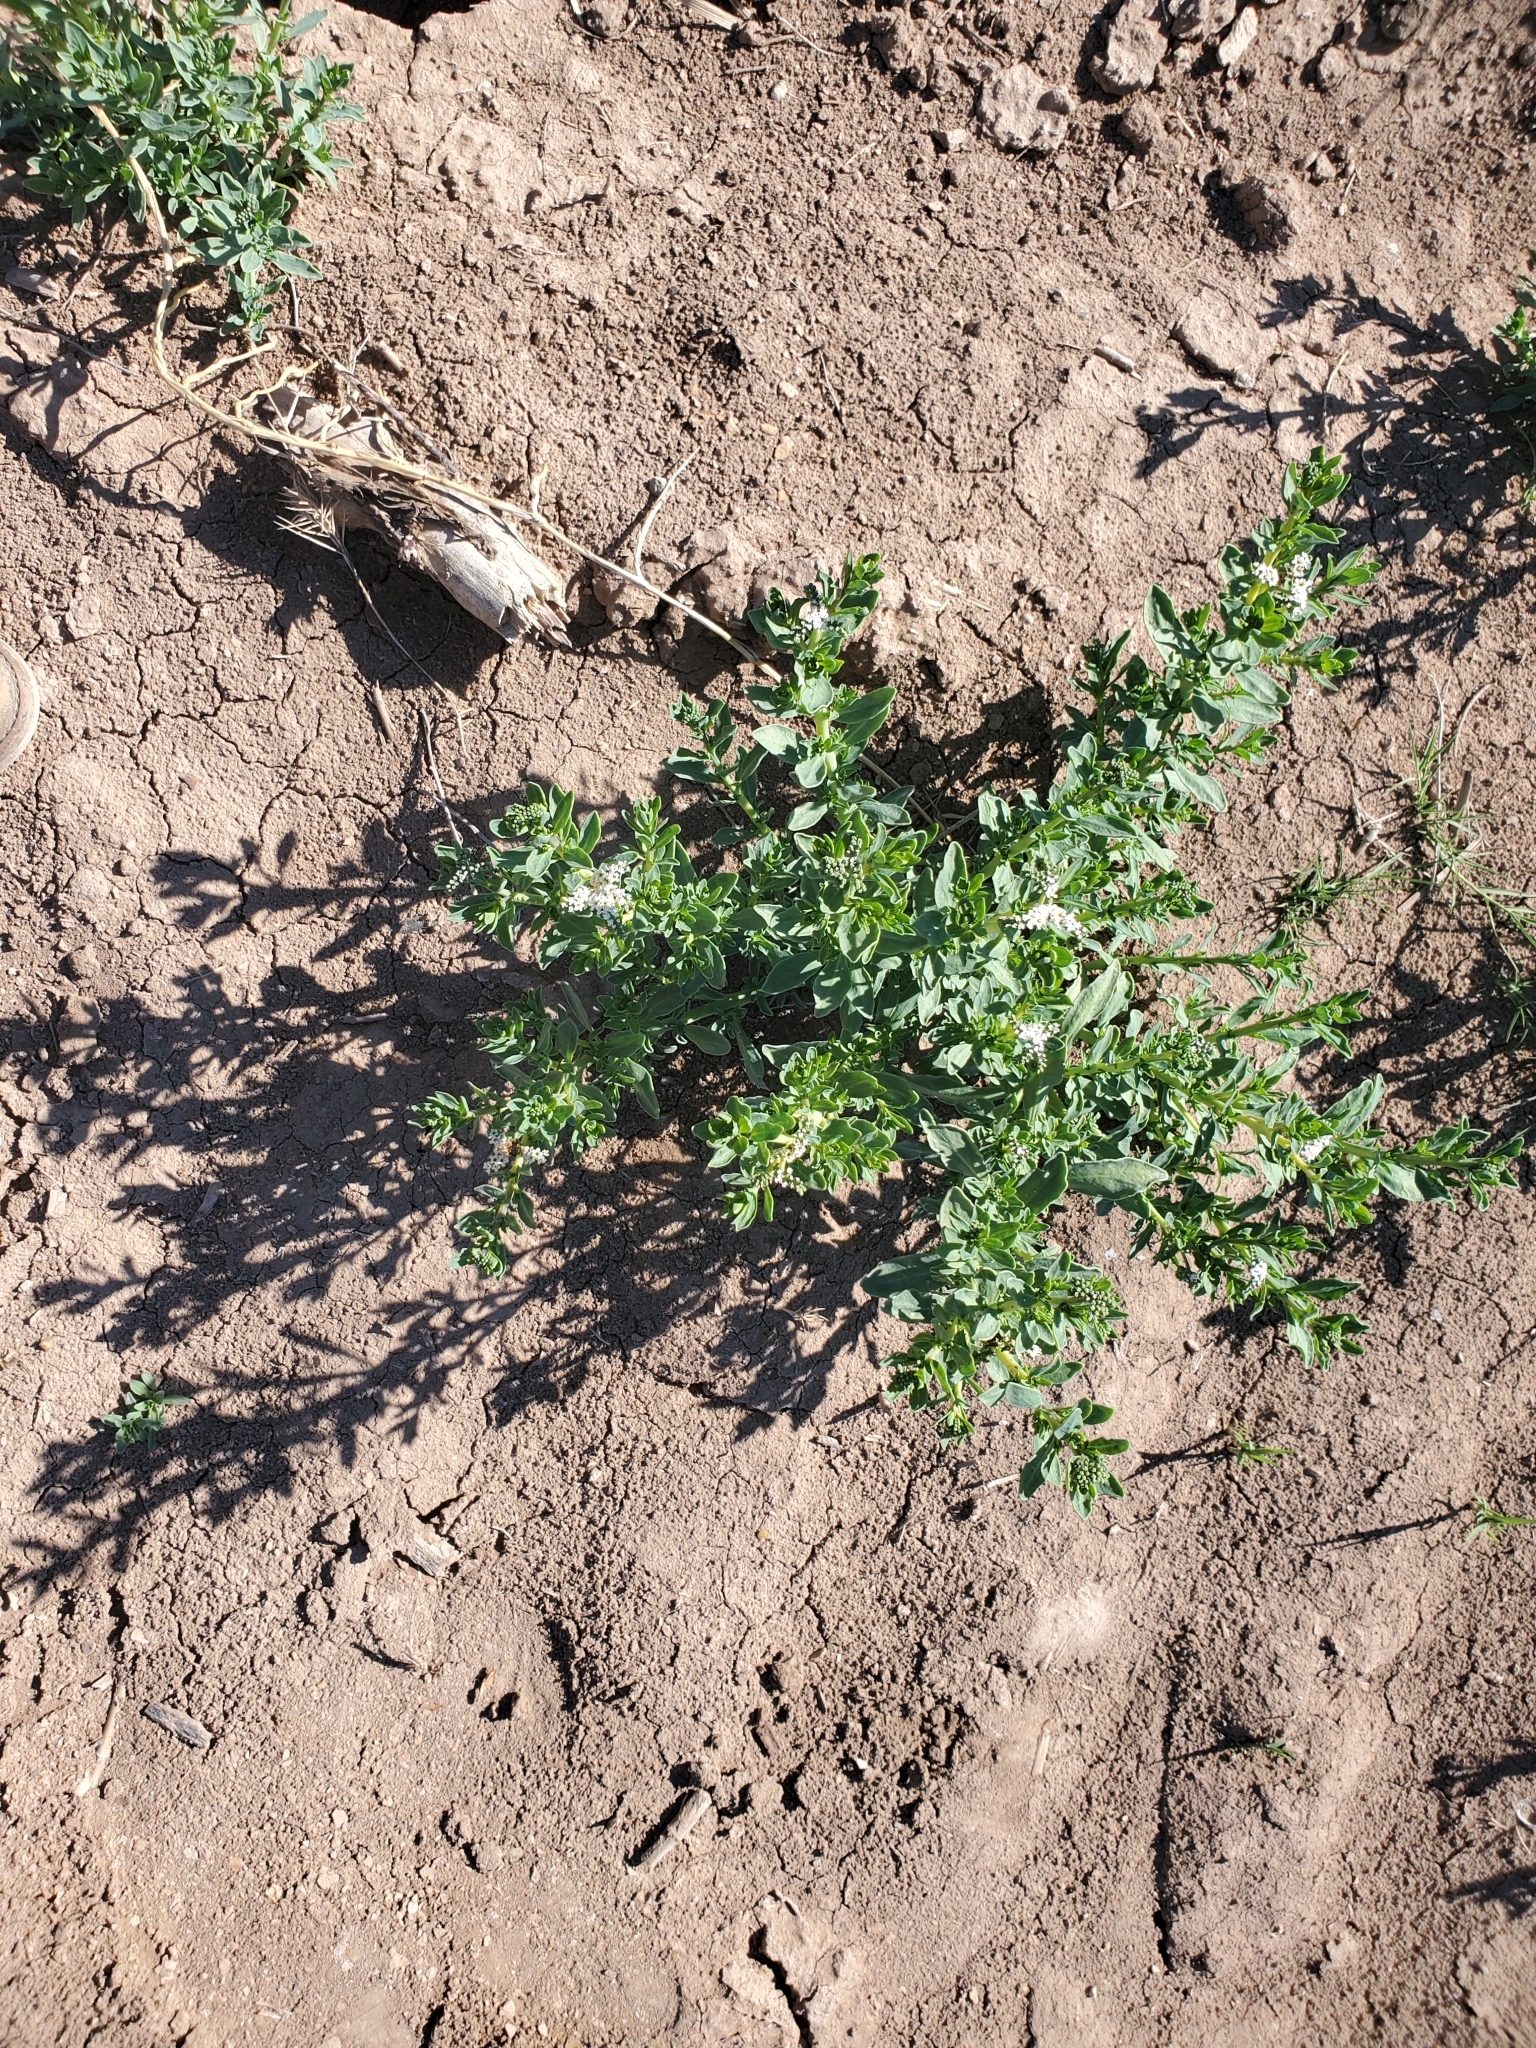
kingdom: Plantae
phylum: Tracheophyta
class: Magnoliopsida
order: Boraginales
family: Heliotropiaceae
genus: Heliotropium
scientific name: Heliotropium curassavicum
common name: Seaside heliotrope
